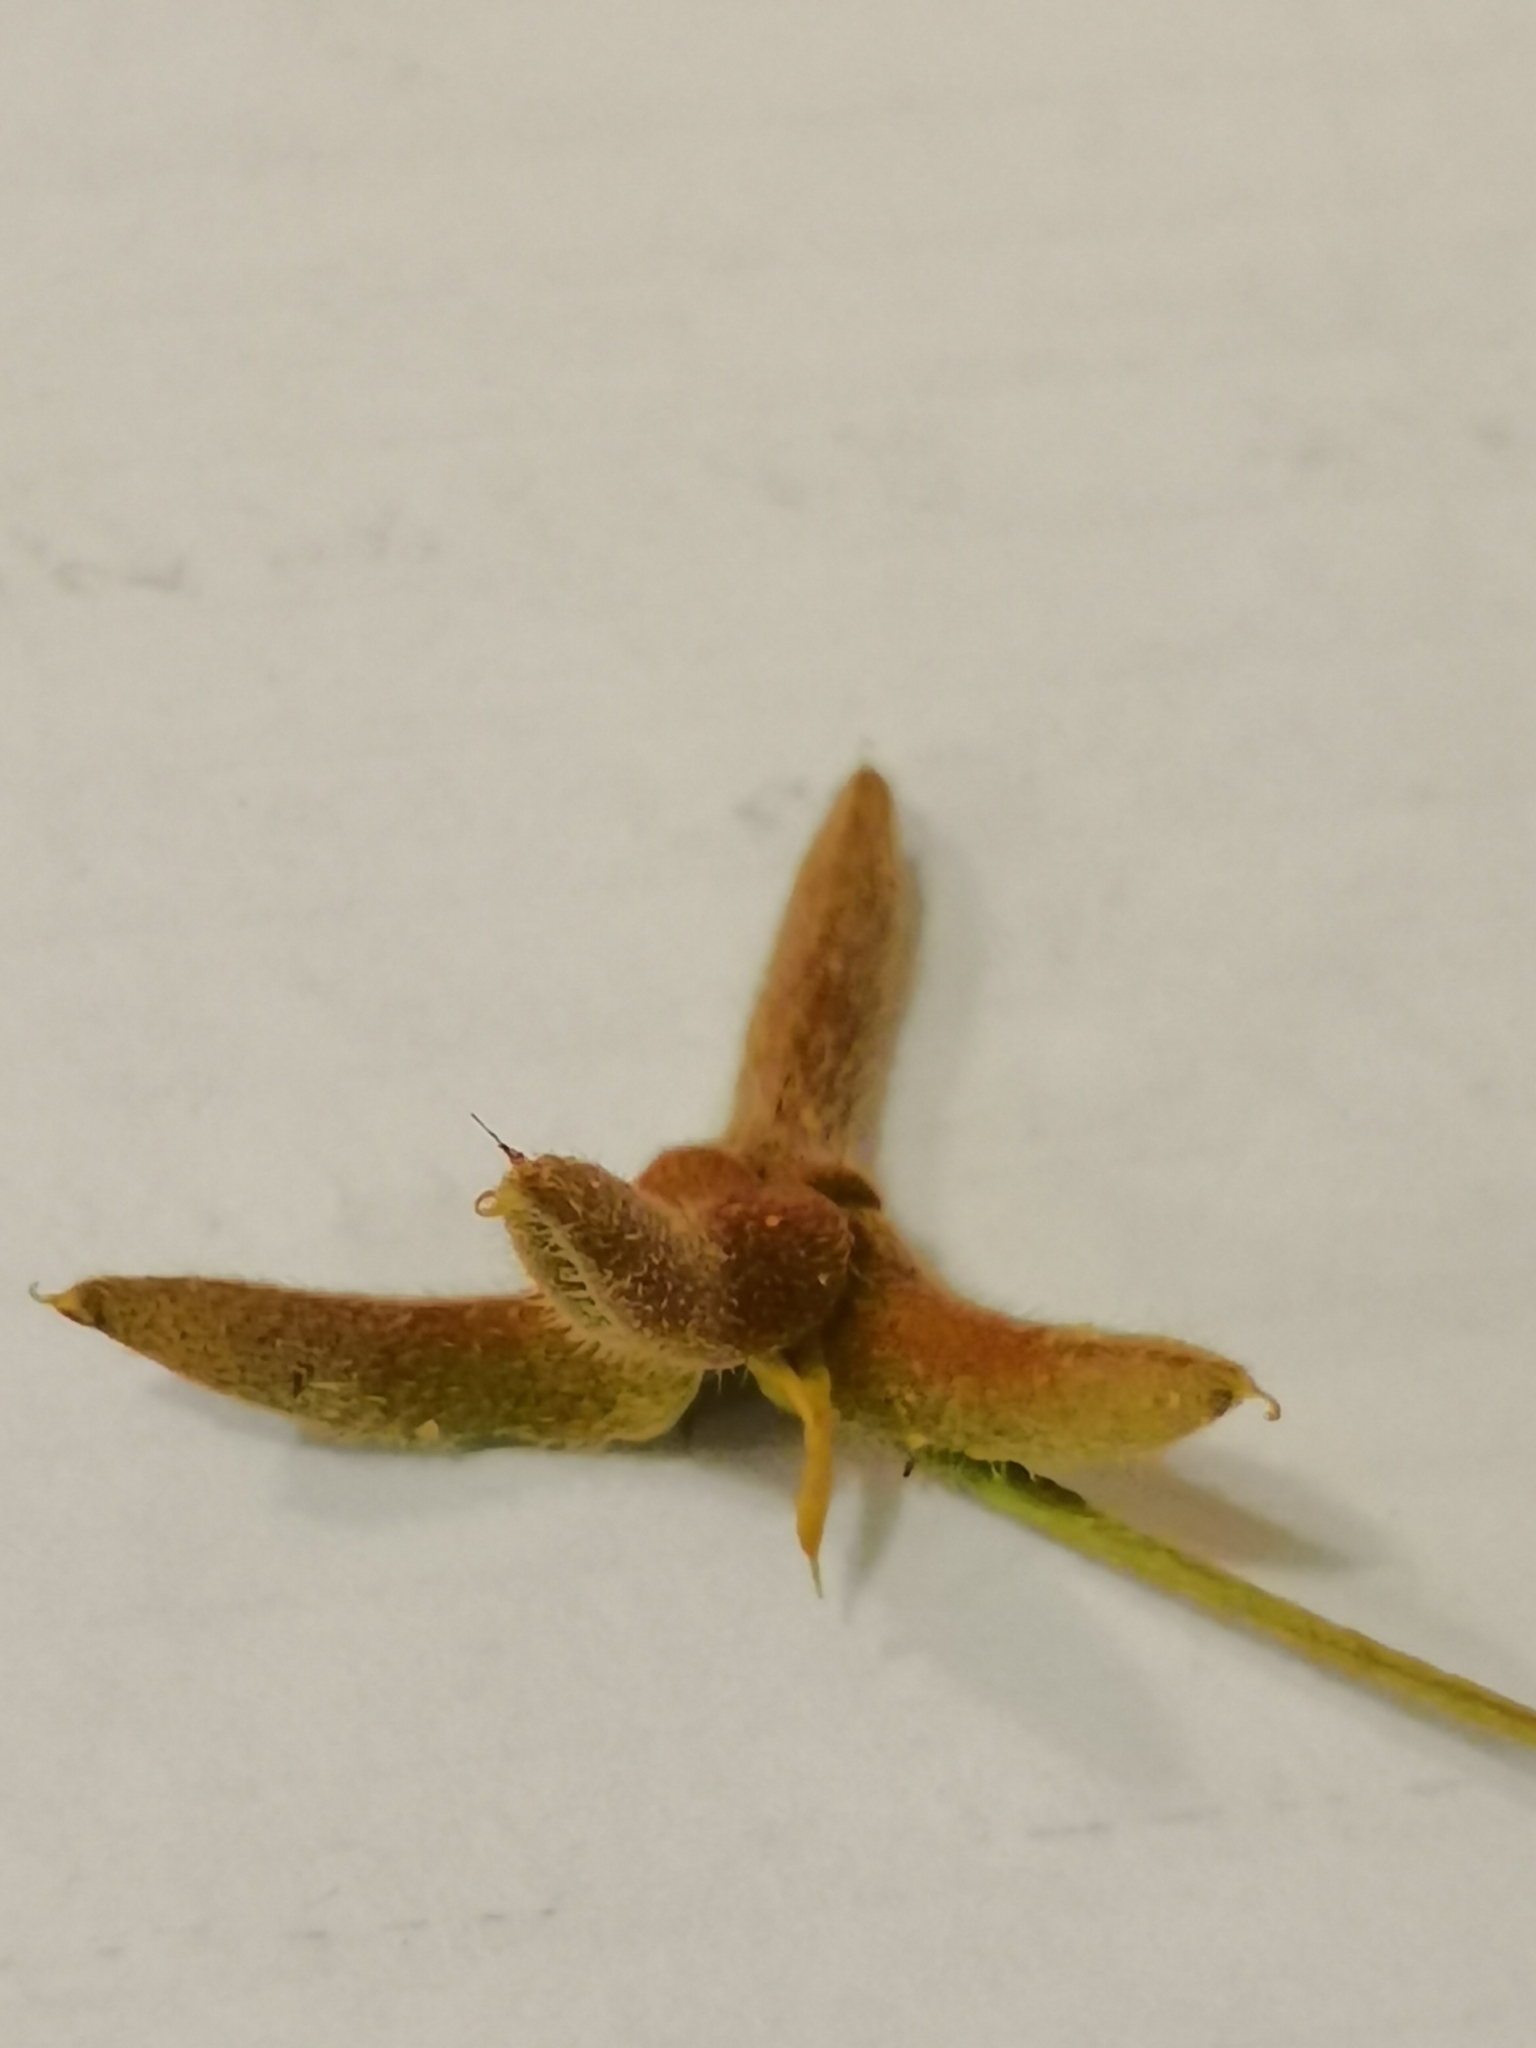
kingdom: Plantae
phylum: Tracheophyta
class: Magnoliopsida
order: Fabales
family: Fabaceae
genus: Astragalus
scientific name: Astragalus asterias
